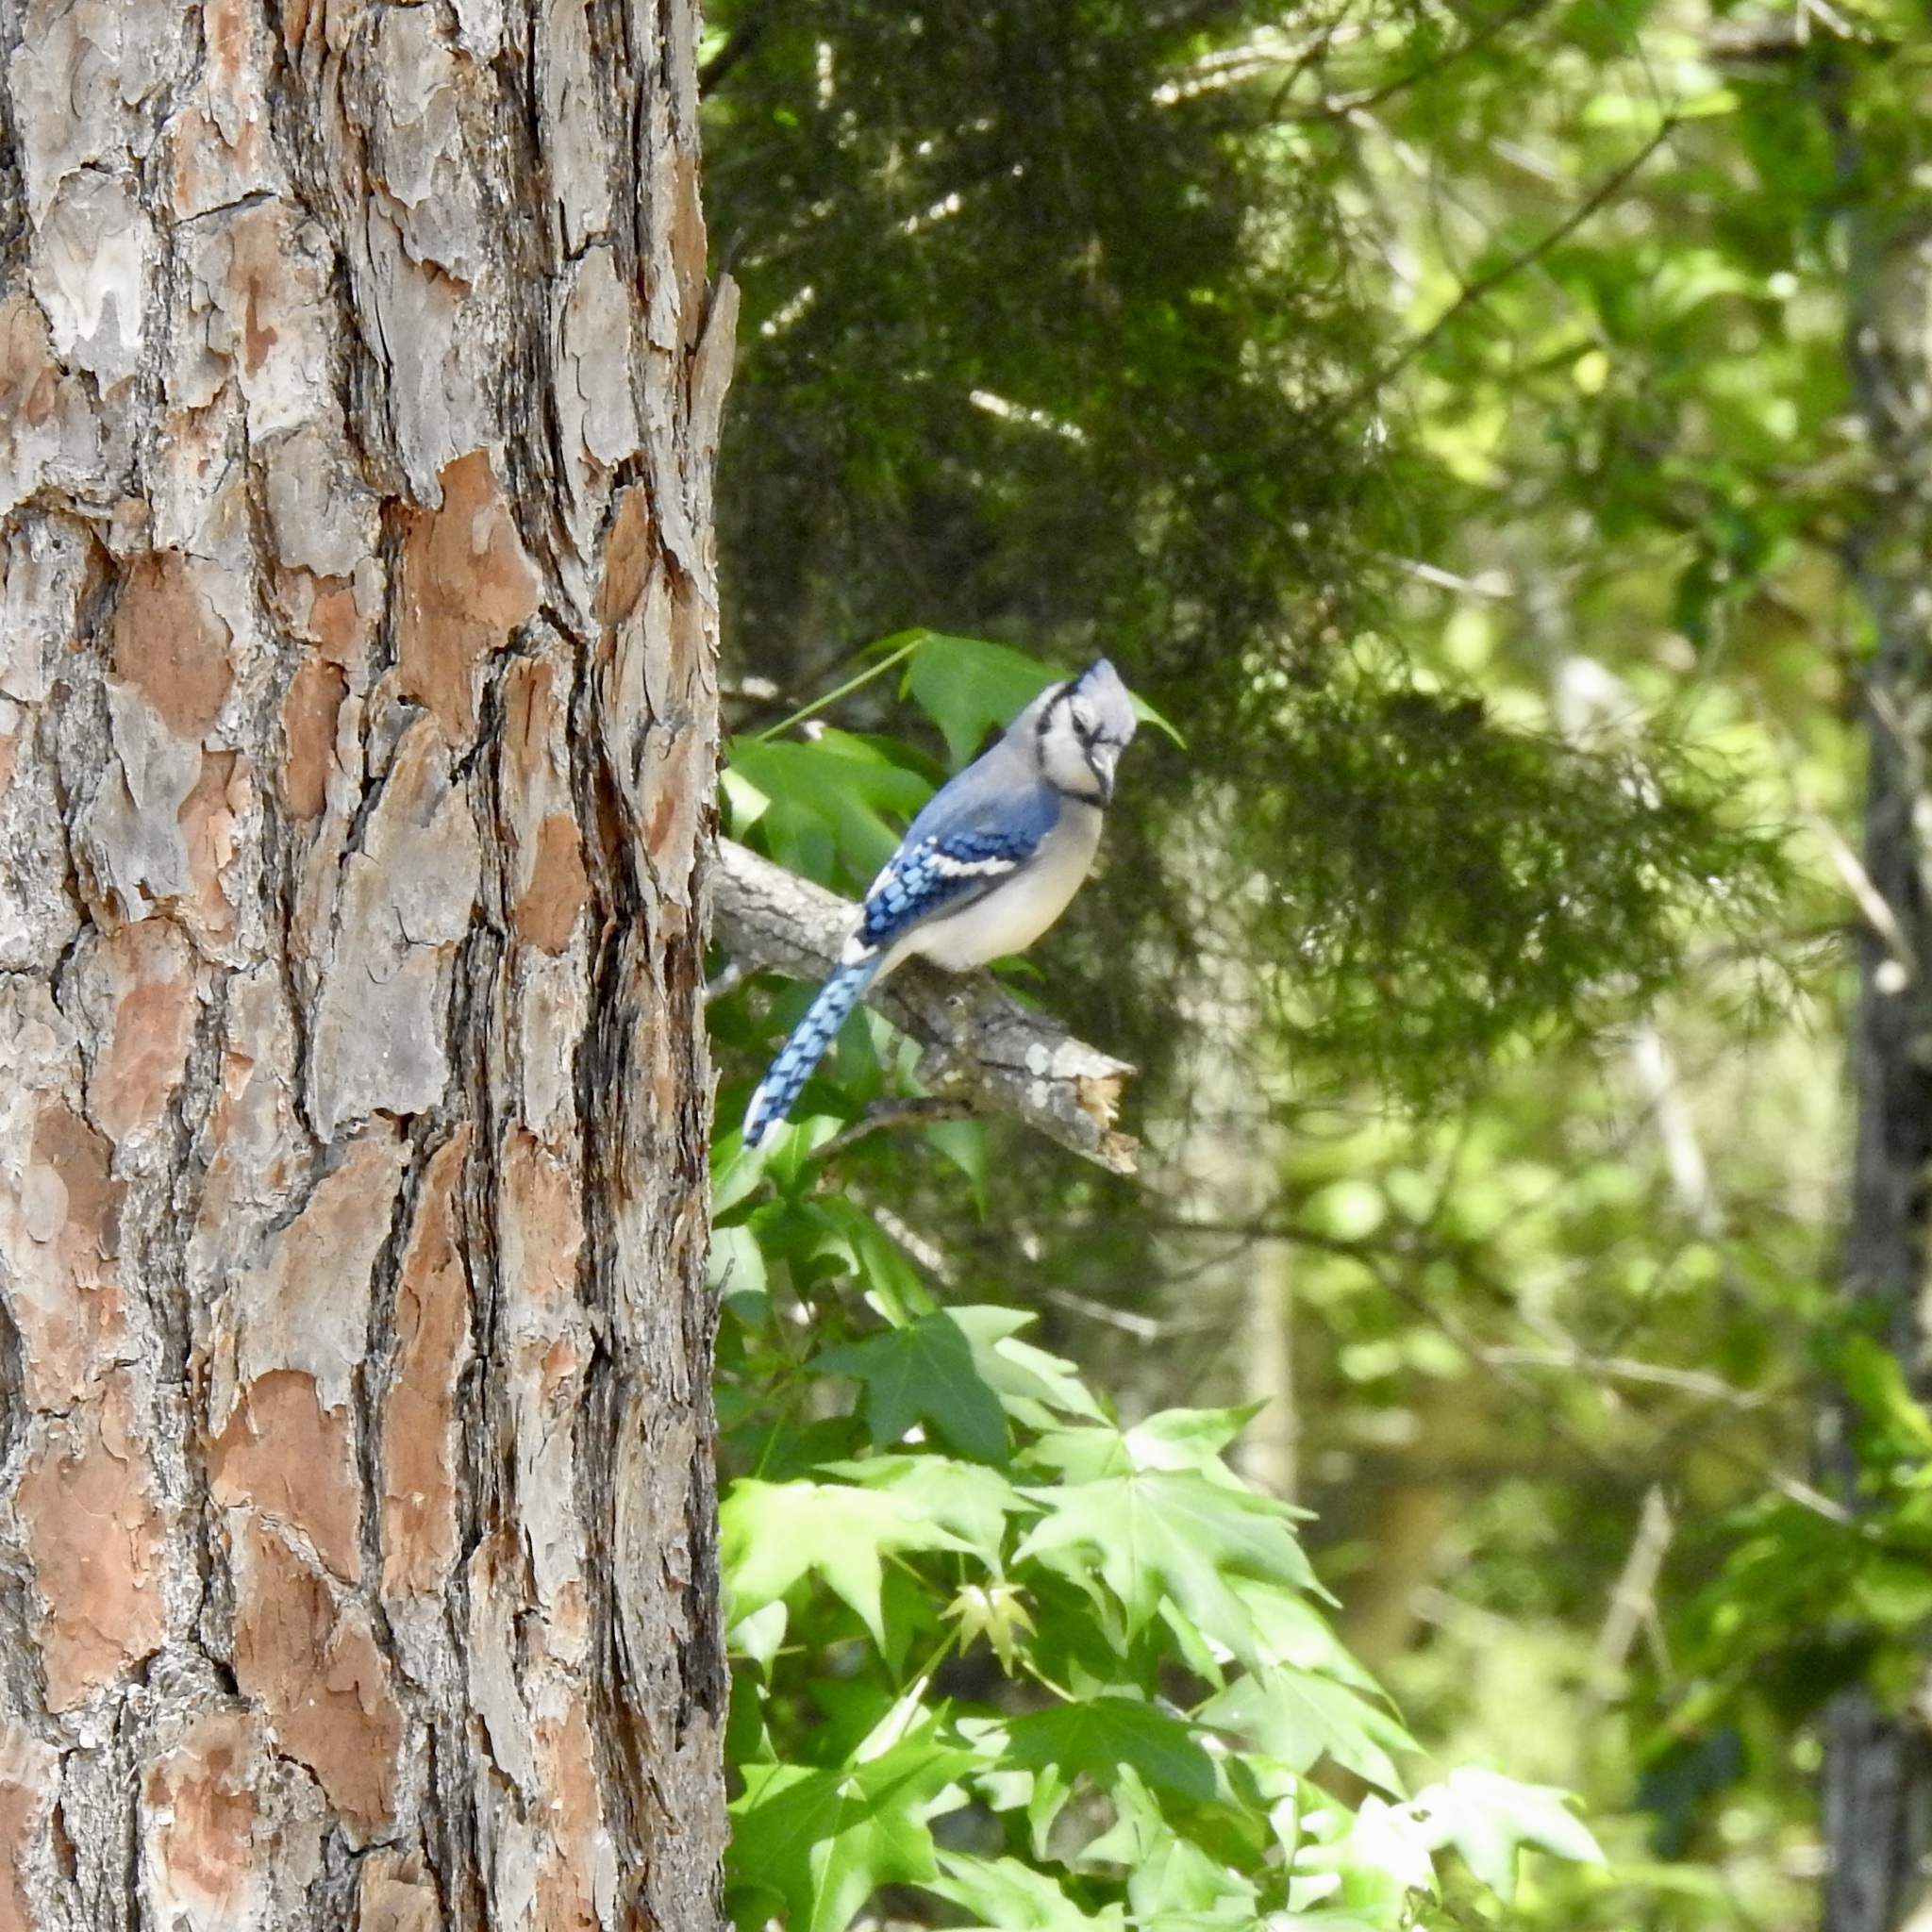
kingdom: Animalia
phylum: Chordata
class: Aves
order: Passeriformes
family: Corvidae
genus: Cyanocitta
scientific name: Cyanocitta cristata
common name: Blue jay
